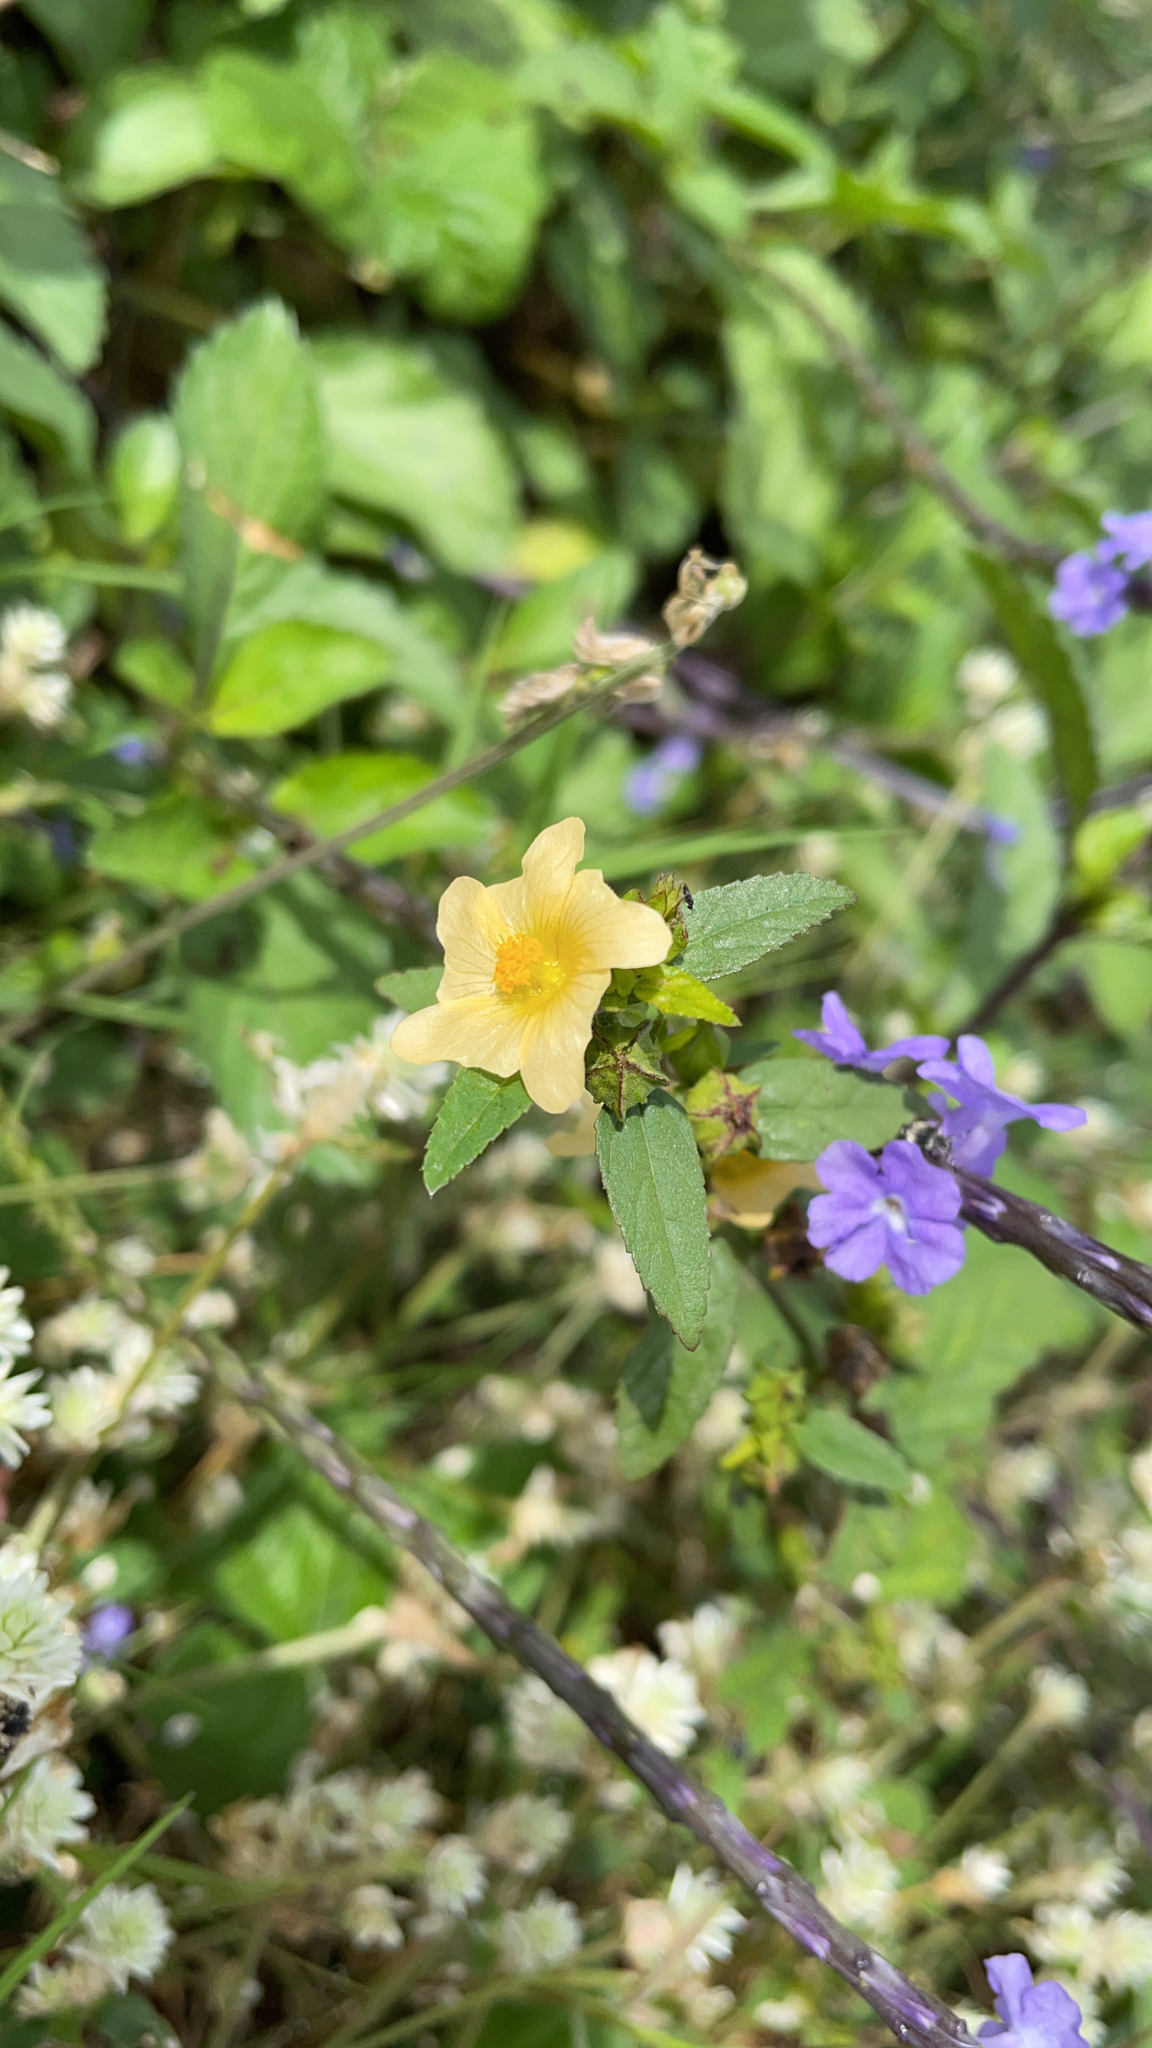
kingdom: Plantae
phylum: Tracheophyta
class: Magnoliopsida
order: Malvales
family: Malvaceae
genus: Sida
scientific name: Sida acuta
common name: Common wireweed
